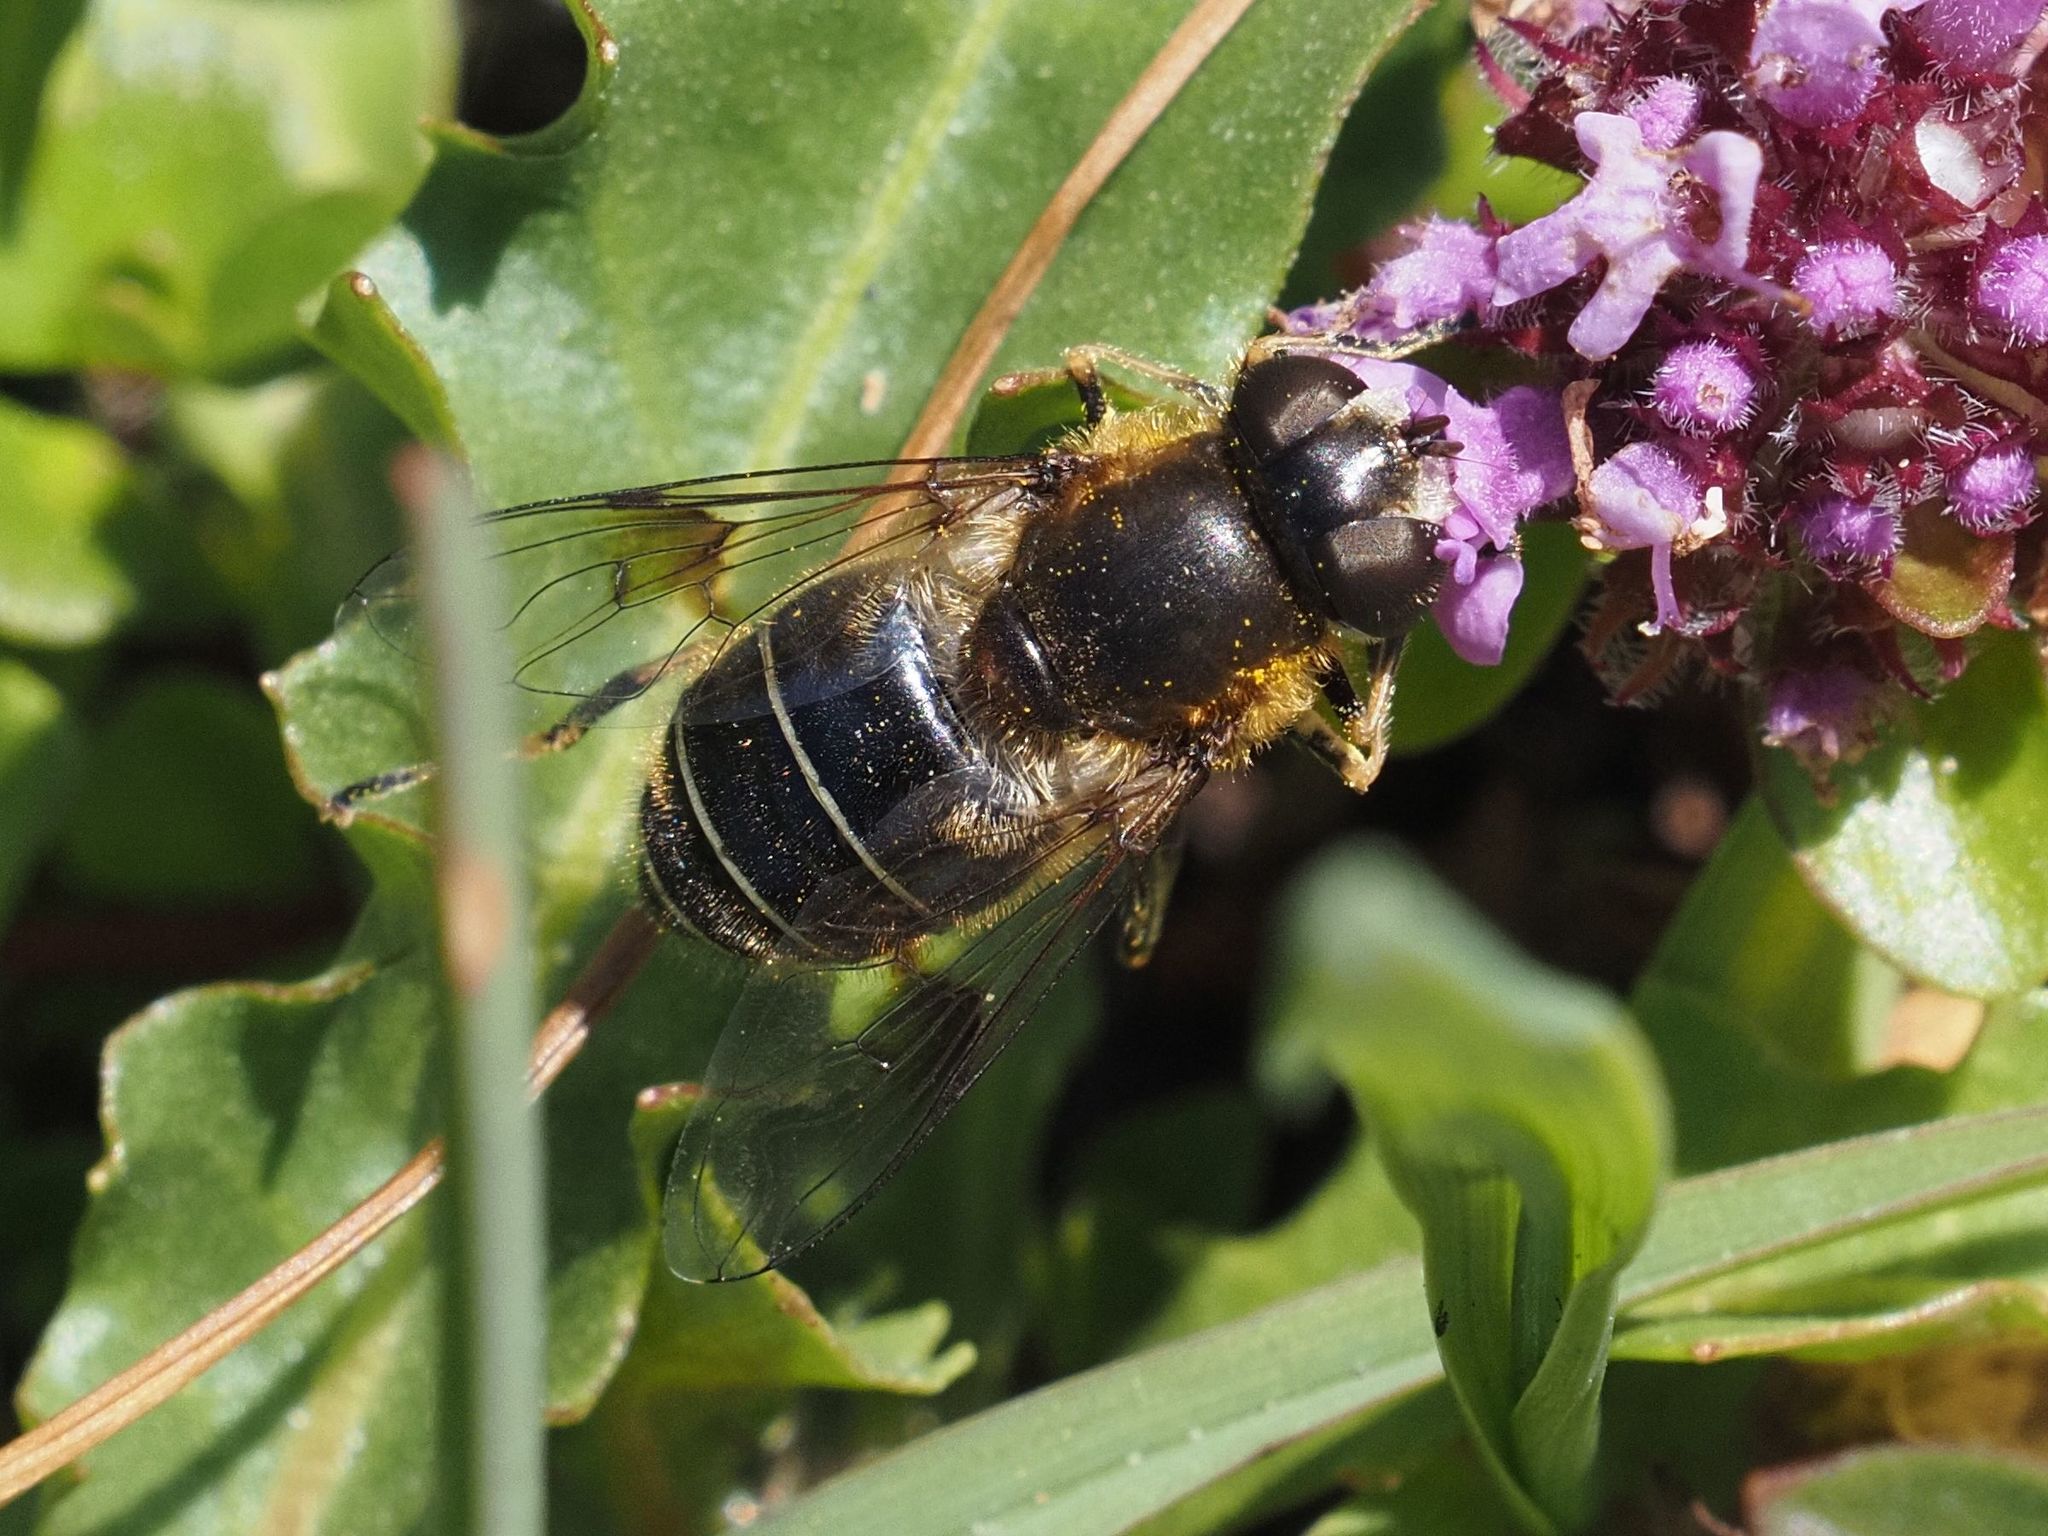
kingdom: Animalia
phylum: Arthropoda
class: Insecta
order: Diptera
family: Syrphidae
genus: Eristalis
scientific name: Eristalis rupium
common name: Hover fly
